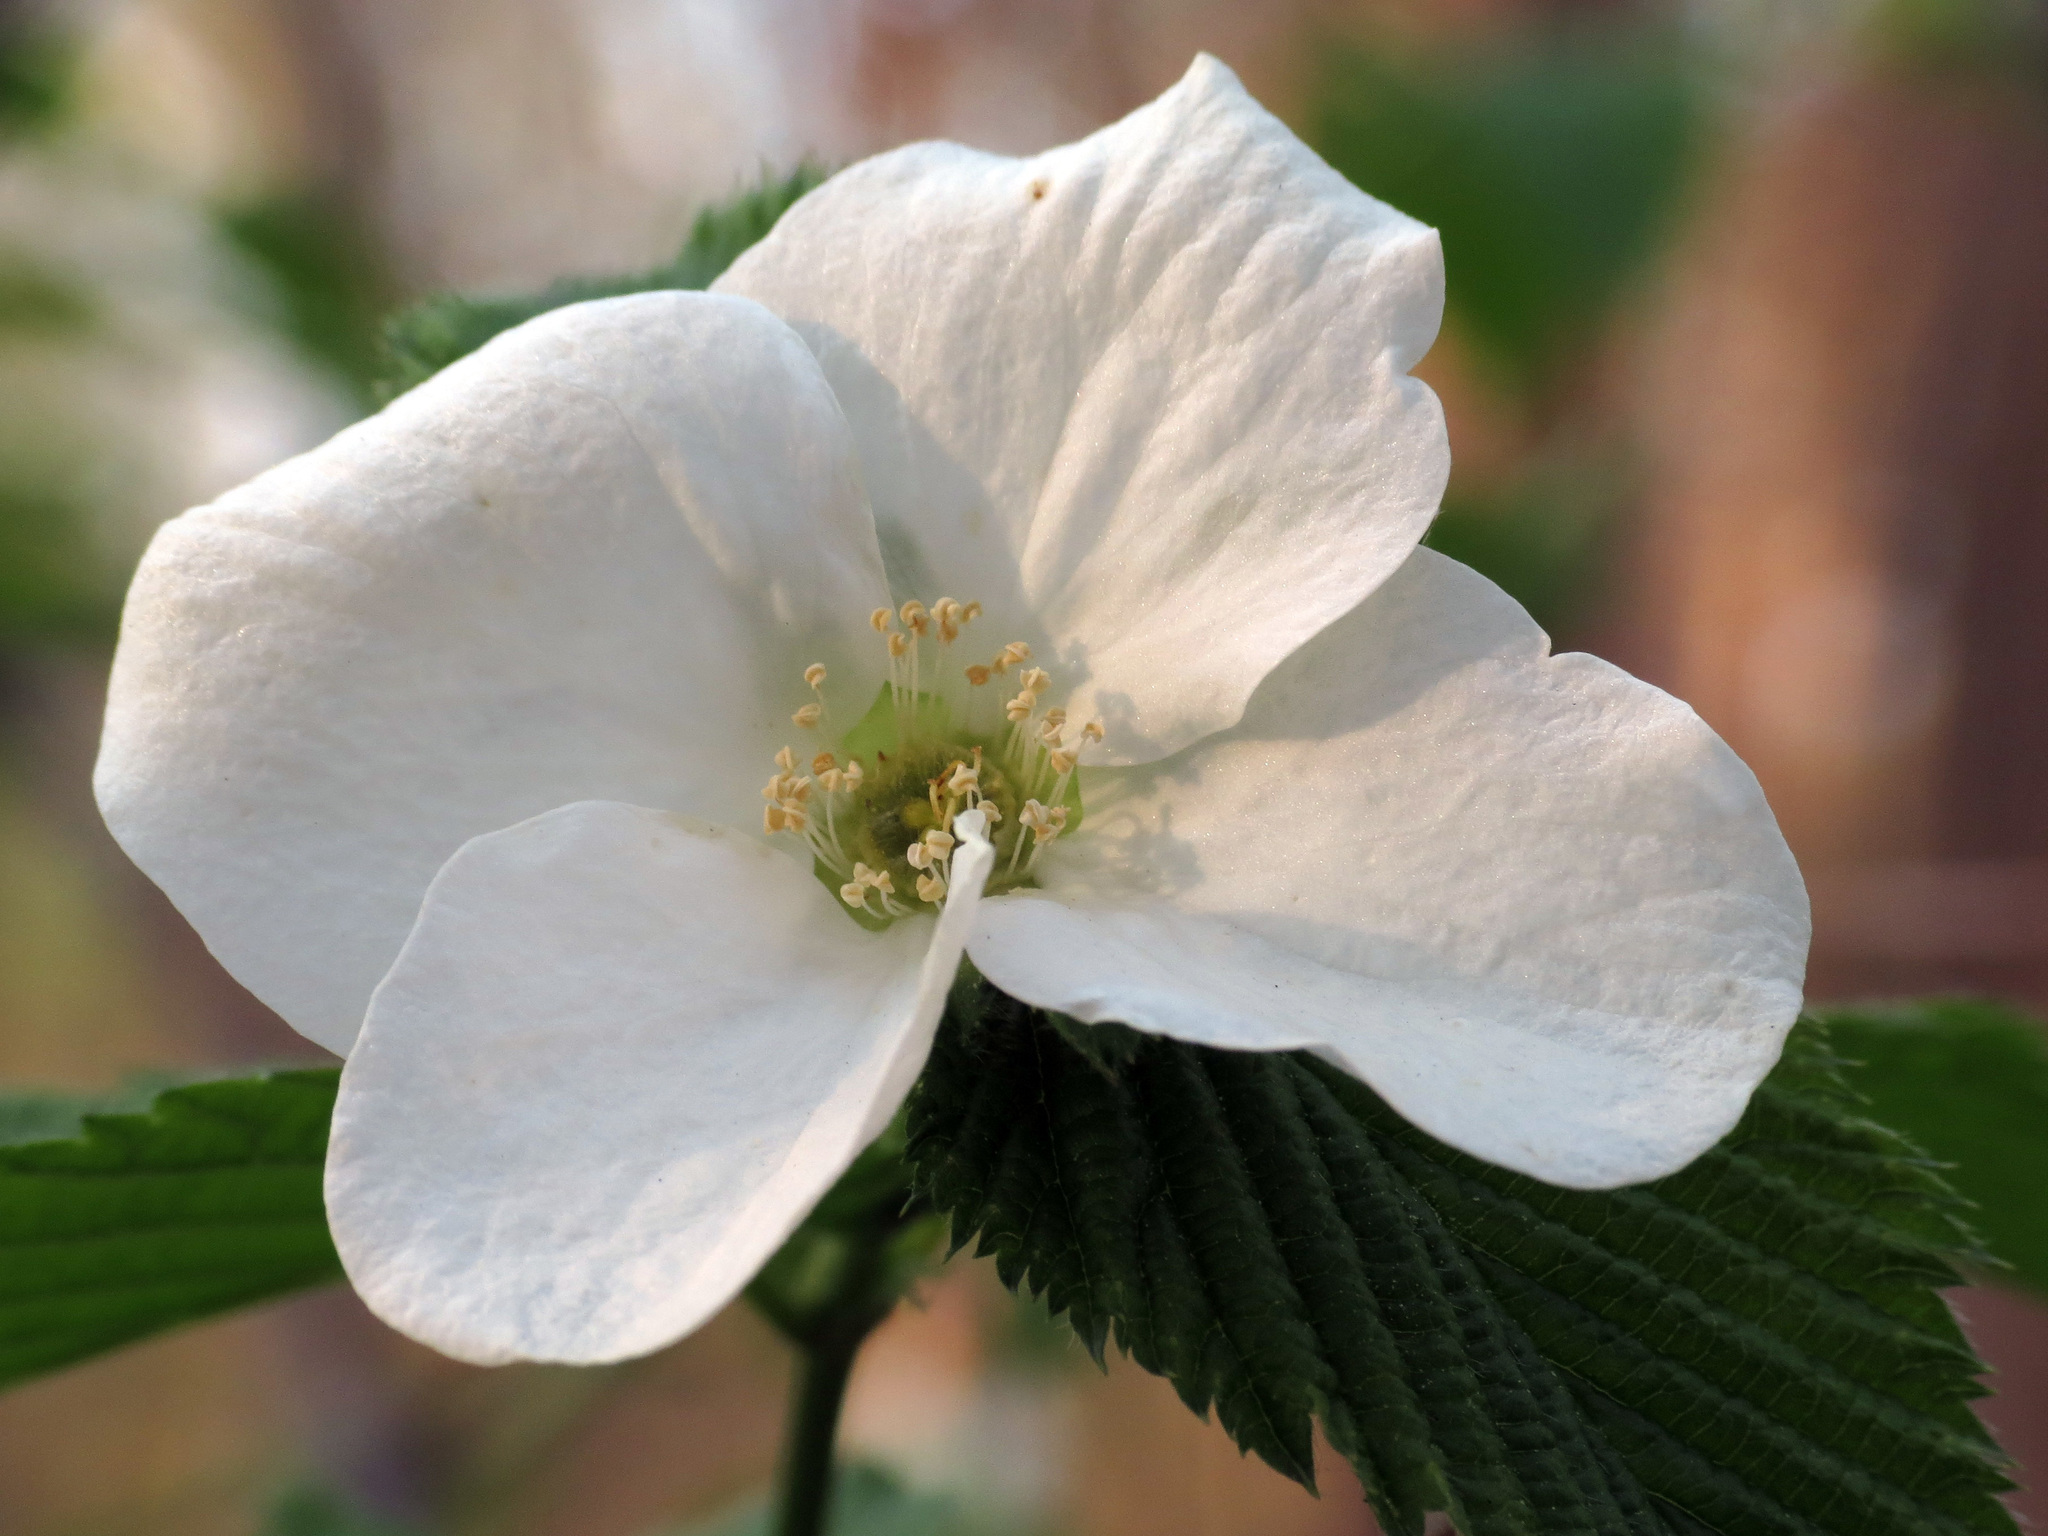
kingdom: Plantae
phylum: Tracheophyta
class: Magnoliopsida
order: Rosales
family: Rosaceae
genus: Rhodotypos
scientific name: Rhodotypos scandens
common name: Jetbead
